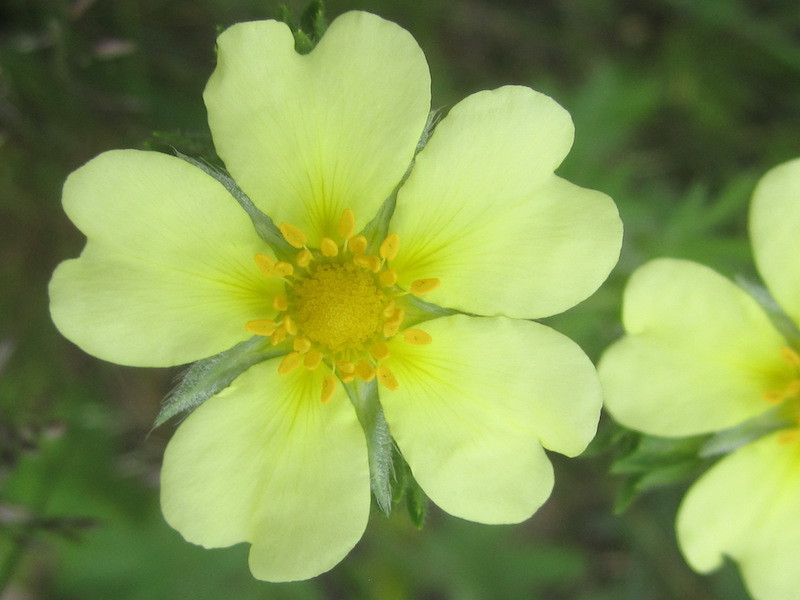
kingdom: Plantae
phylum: Tracheophyta
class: Magnoliopsida
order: Rosales
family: Rosaceae
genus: Potentilla
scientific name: Potentilla recta
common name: Sulphur cinquefoil
